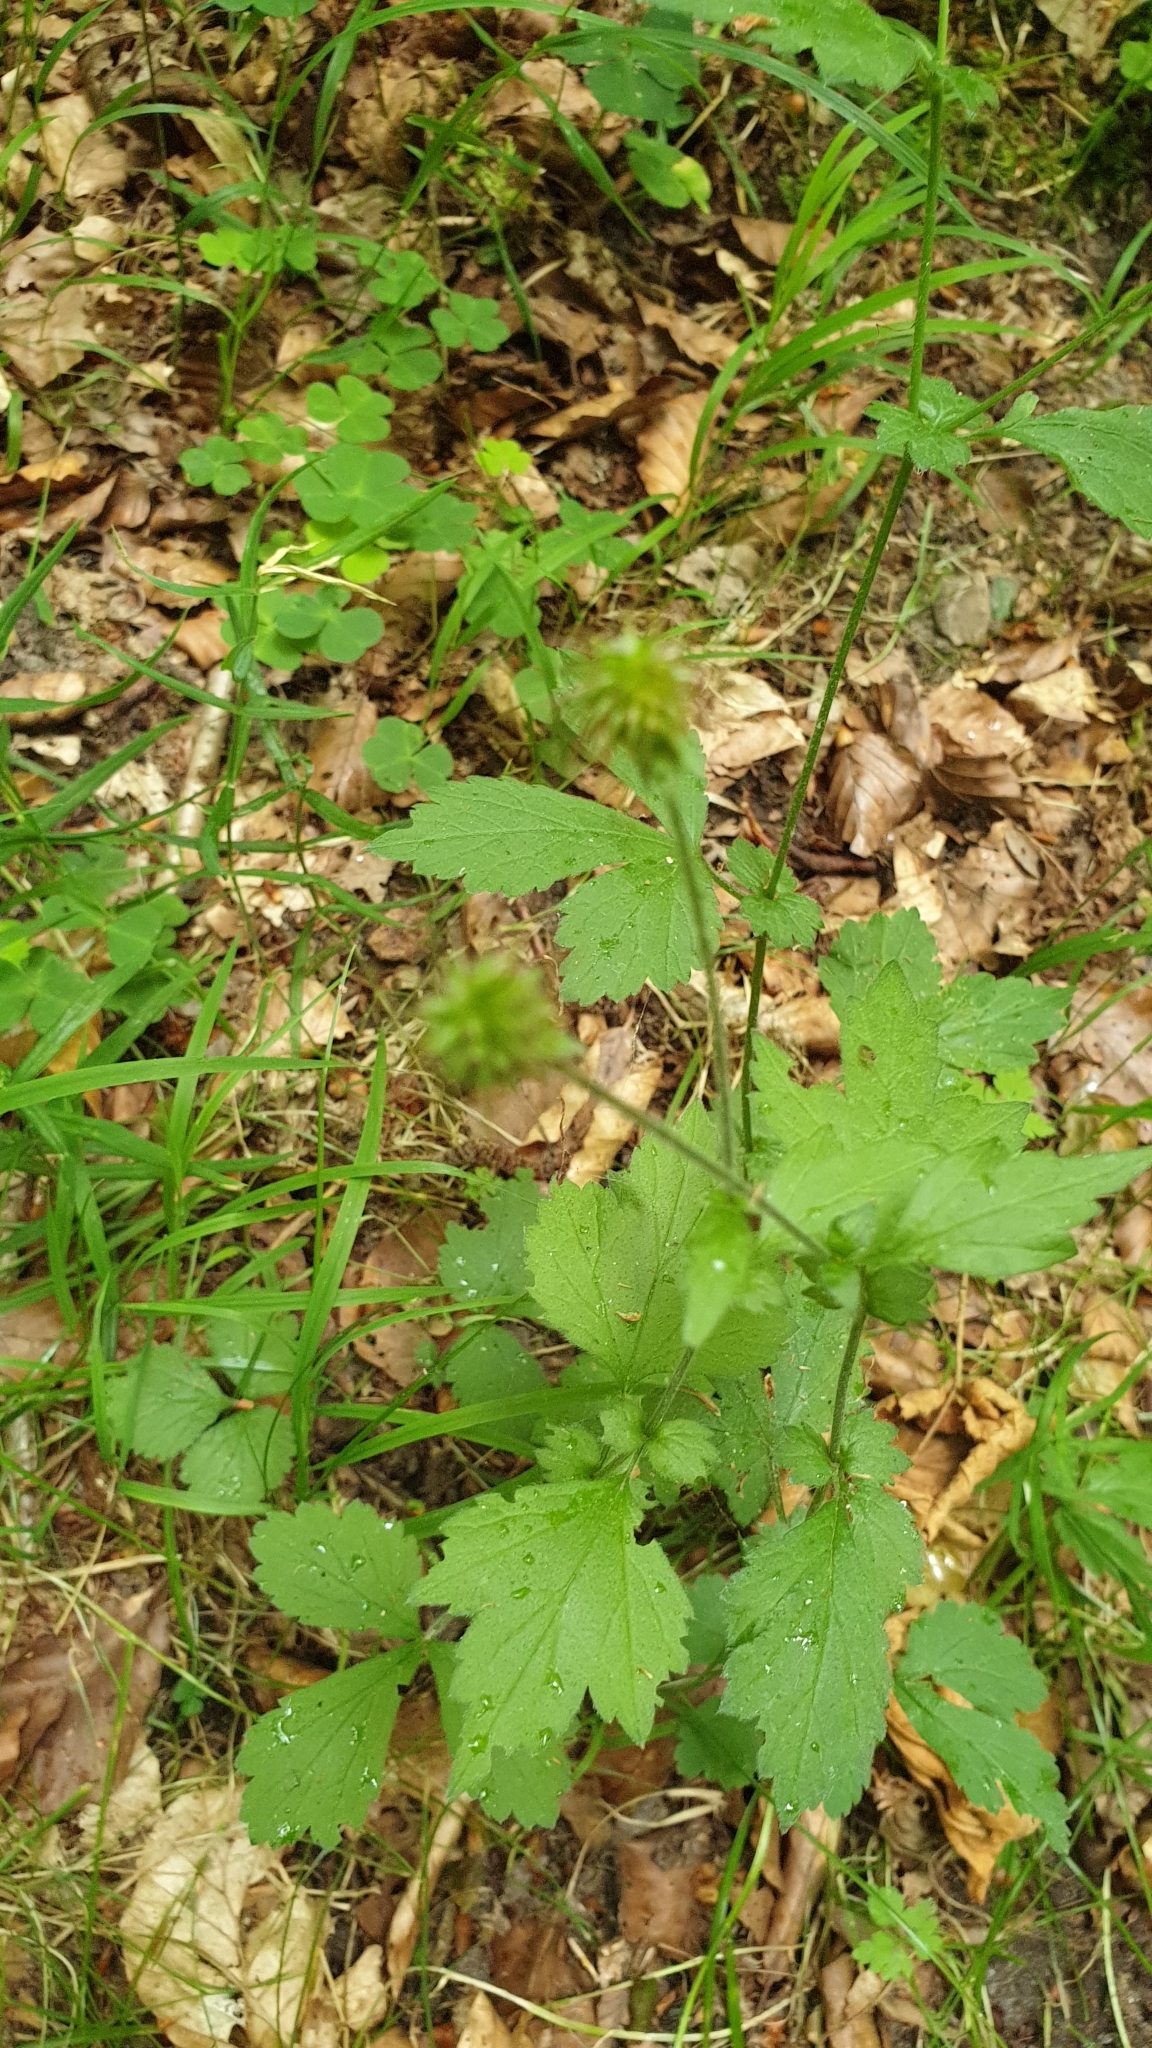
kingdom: Plantae
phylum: Tracheophyta
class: Magnoliopsida
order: Rosales
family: Rosaceae
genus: Geum
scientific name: Geum urbanum
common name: Wood avens
